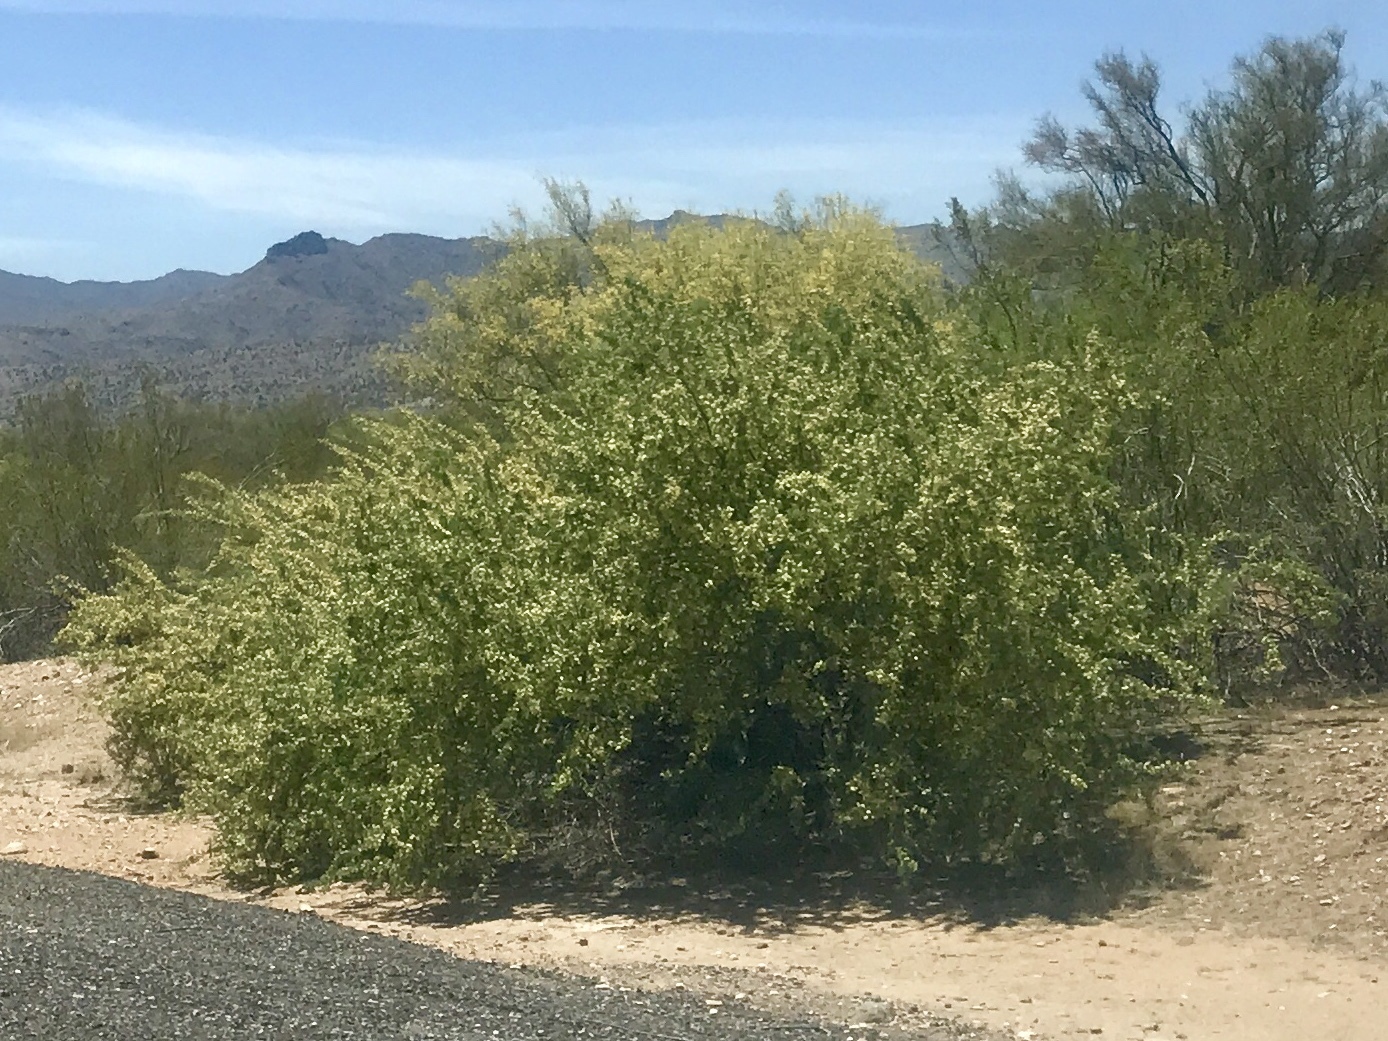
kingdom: Plantae
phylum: Tracheophyta
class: Magnoliopsida
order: Zygophyllales
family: Zygophyllaceae
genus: Larrea
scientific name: Larrea tridentata
